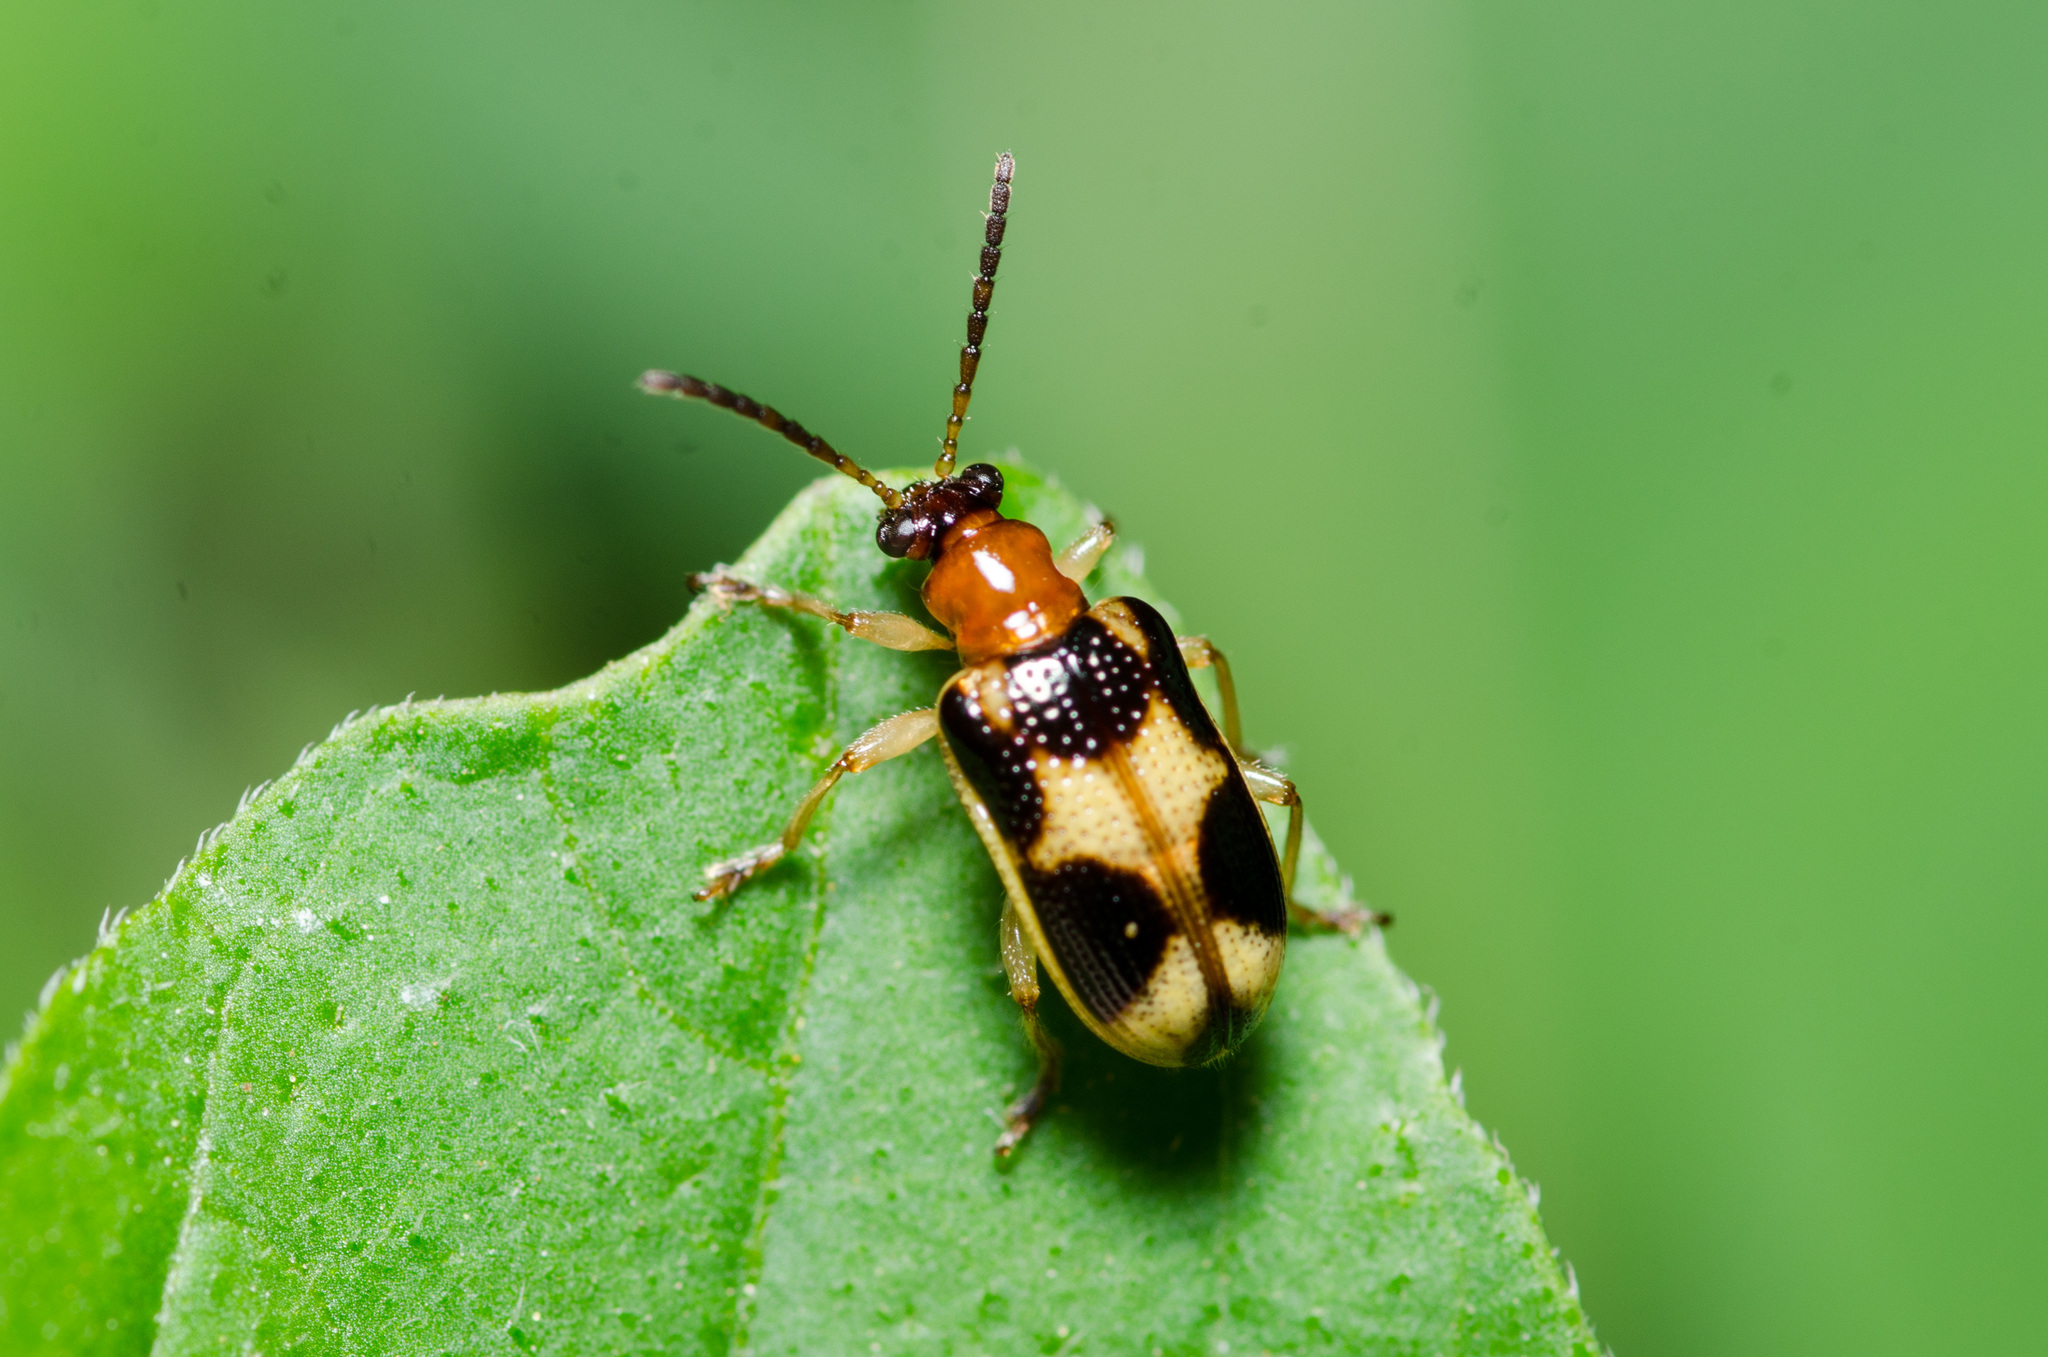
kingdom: Animalia
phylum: Arthropoda
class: Insecta
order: Coleoptera
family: Chrysomelidae
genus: Lema
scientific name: Lema opulenta
